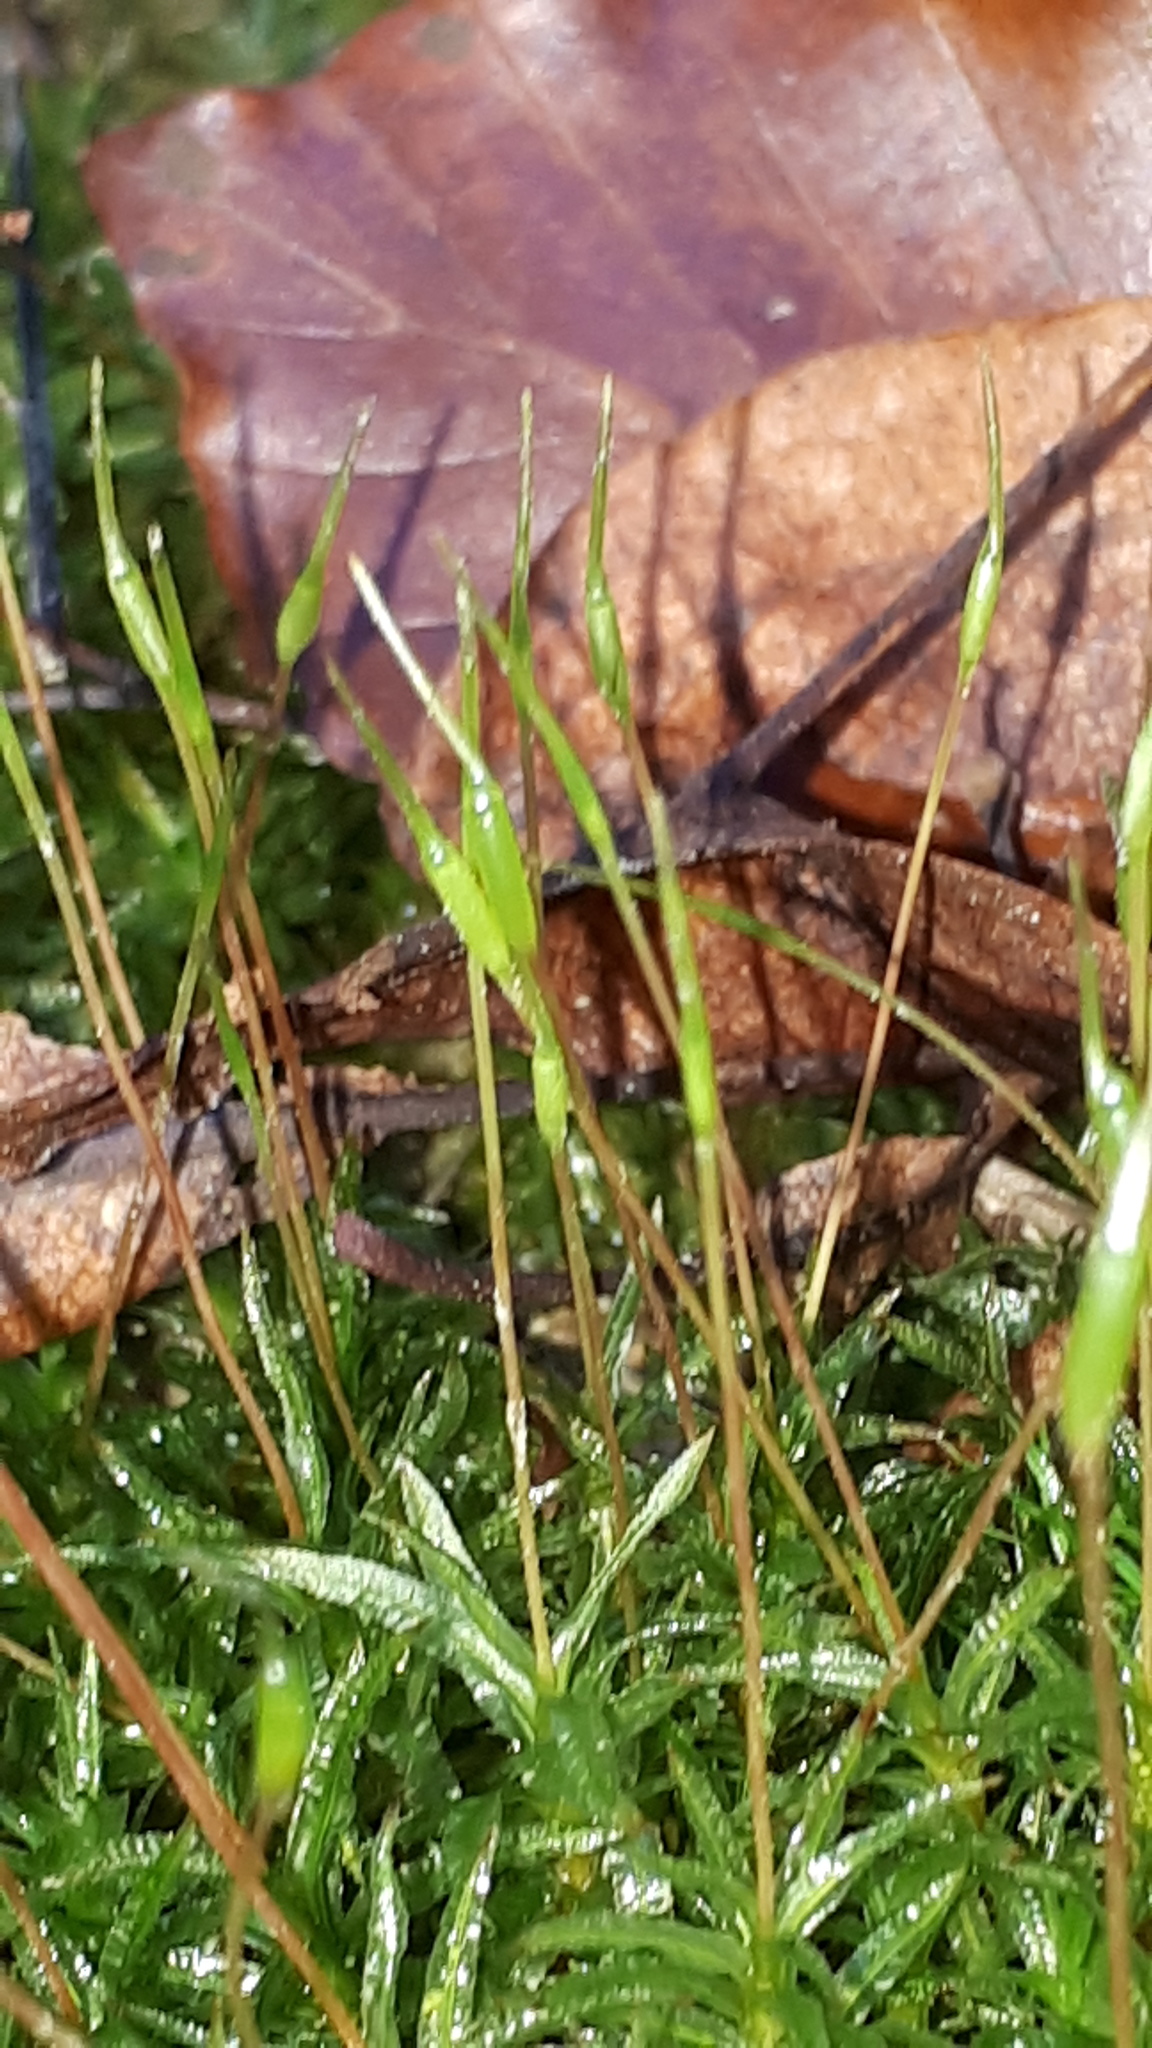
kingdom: Plantae
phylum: Bryophyta
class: Polytrichopsida
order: Polytrichales
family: Polytrichaceae
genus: Atrichum
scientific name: Atrichum undulatum
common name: Common smoothcap
